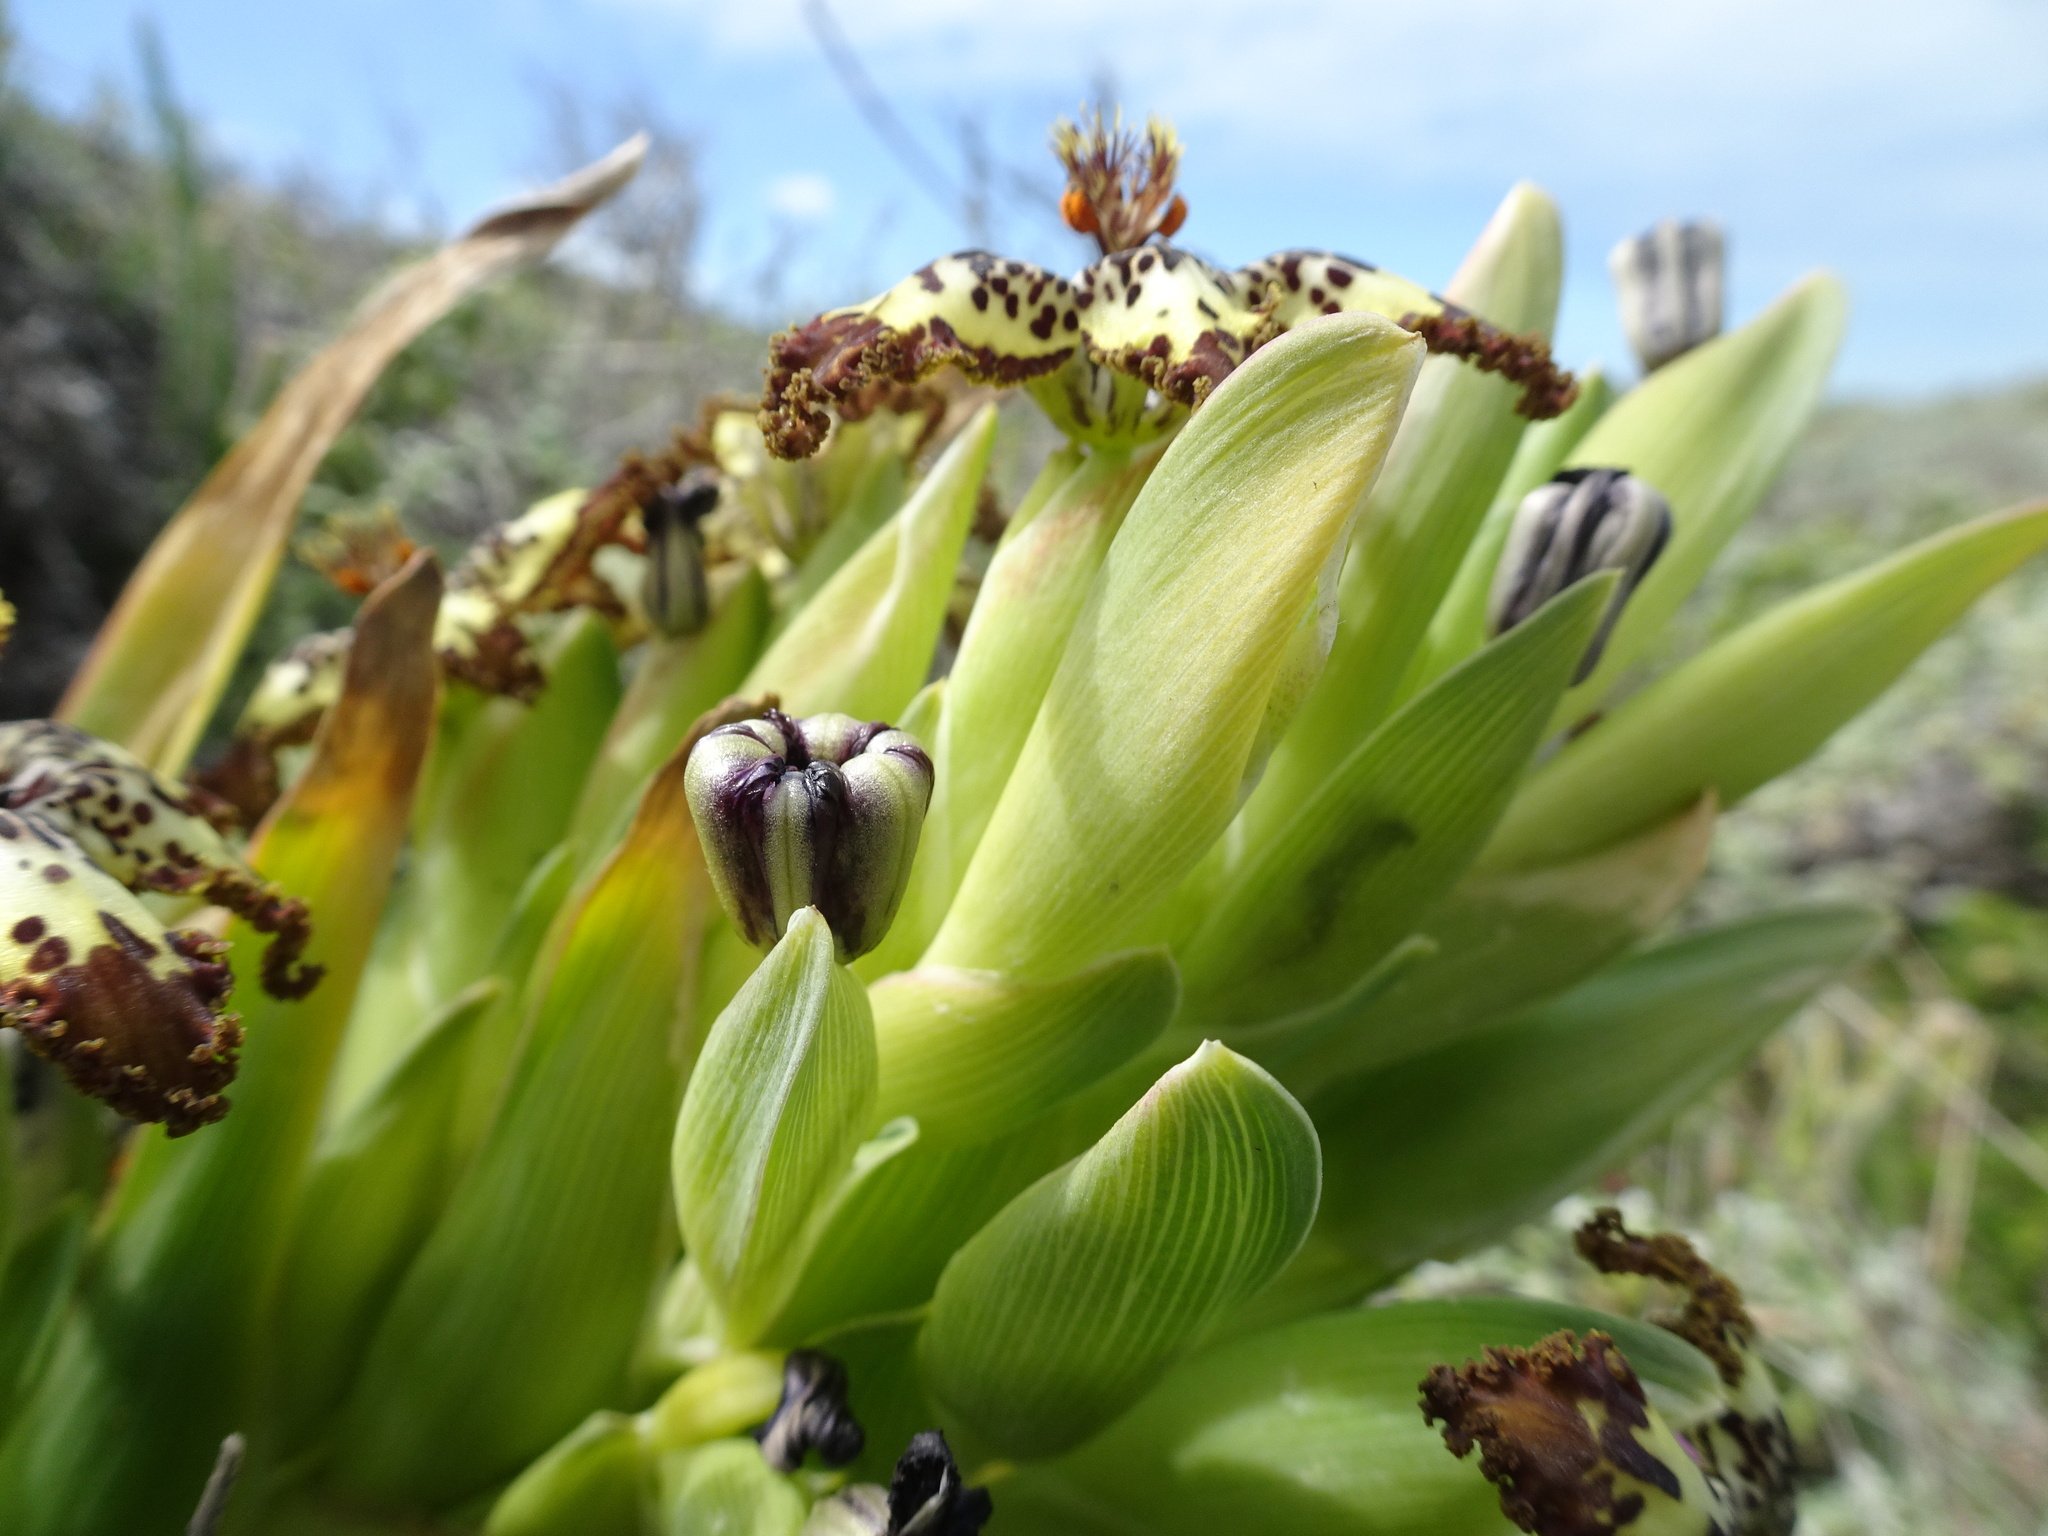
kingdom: Plantae
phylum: Tracheophyta
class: Liliopsida
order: Asparagales
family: Iridaceae
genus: Ferraria
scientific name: Ferraria crispa
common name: Black-flag
